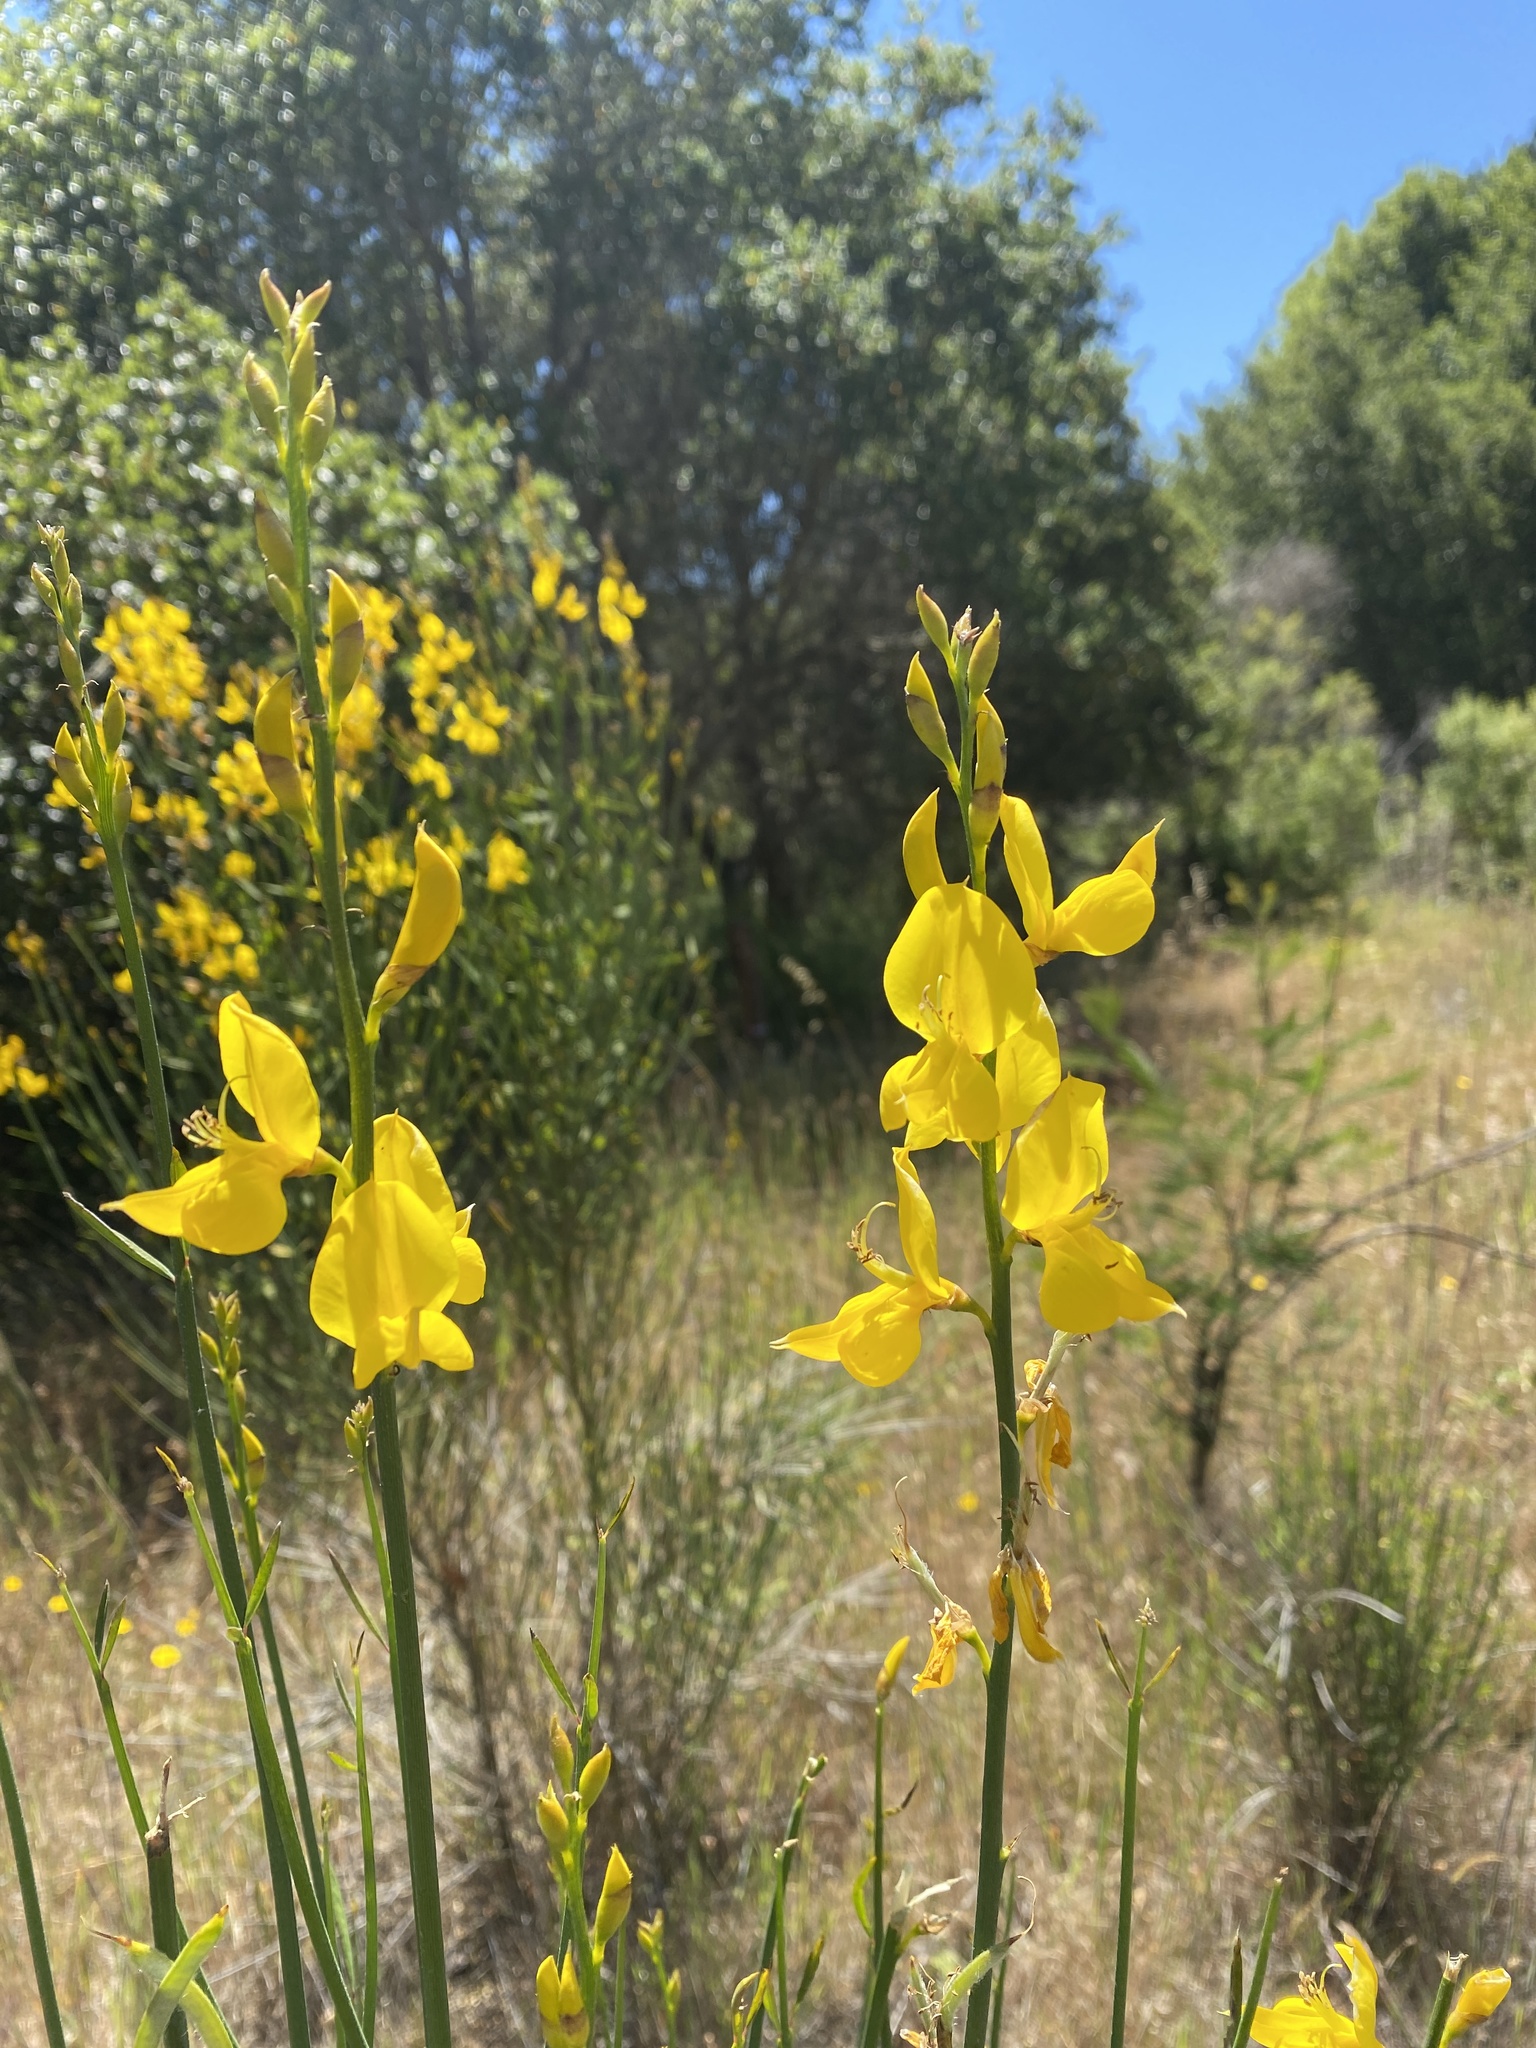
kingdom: Plantae
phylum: Tracheophyta
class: Magnoliopsida
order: Fabales
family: Fabaceae
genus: Spartium
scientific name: Spartium junceum
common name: Spanish broom
